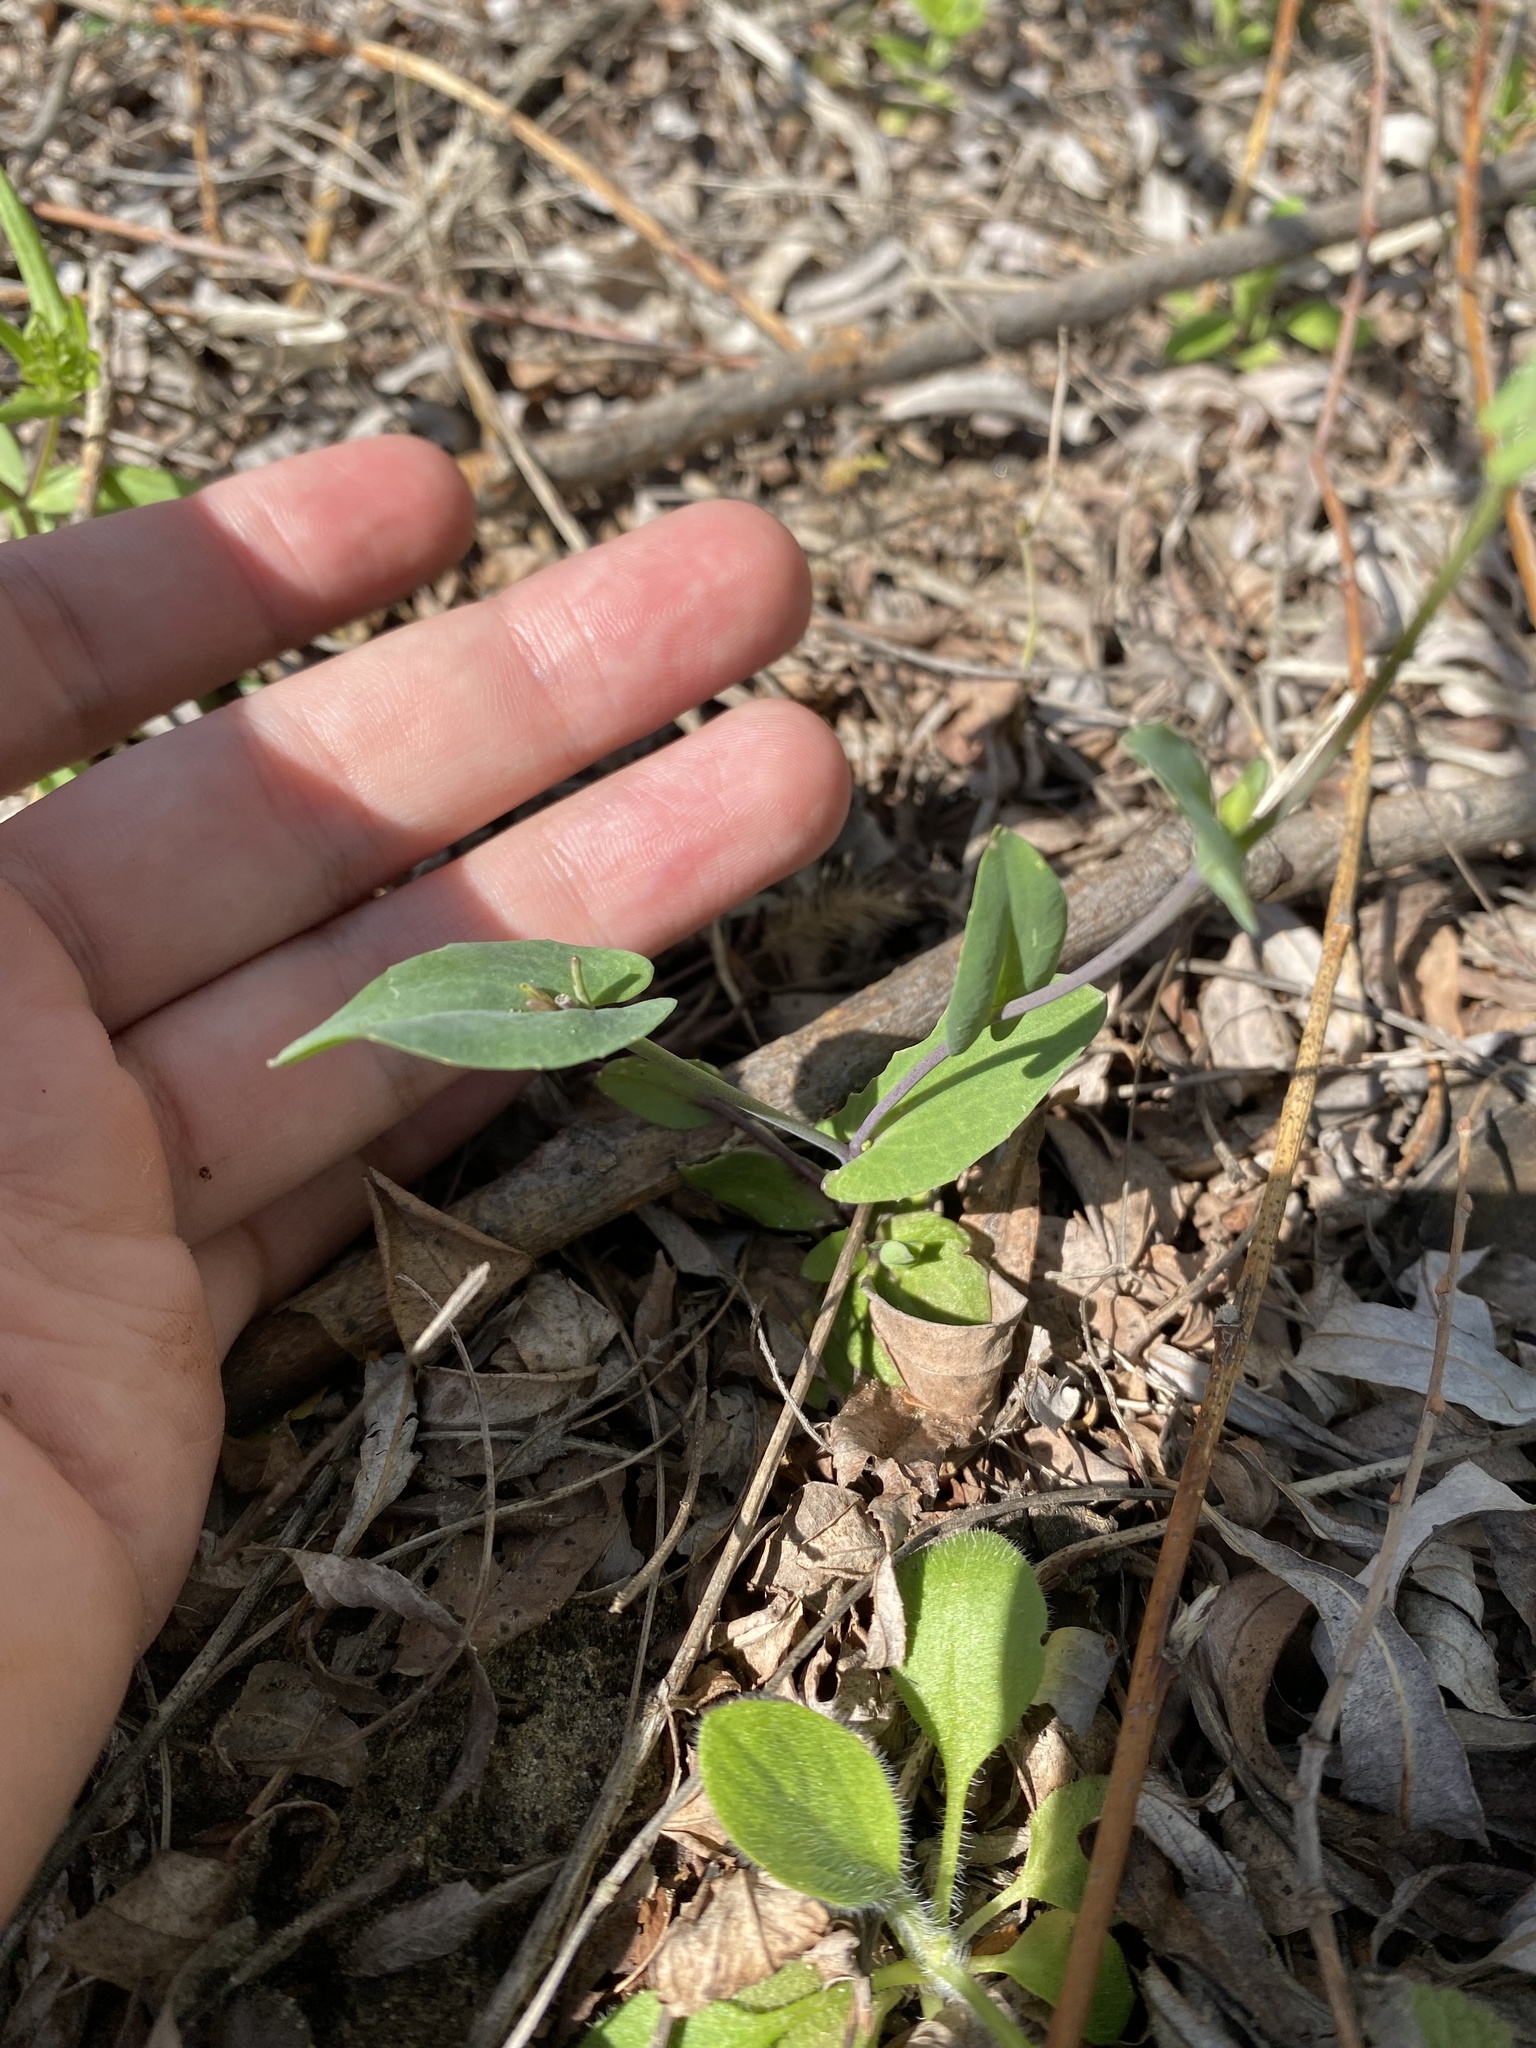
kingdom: Plantae
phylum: Tracheophyta
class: Magnoliopsida
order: Brassicales
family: Brassicaceae
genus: Noccaea
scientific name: Noccaea perfoliata
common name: Perfoliate pennycress
